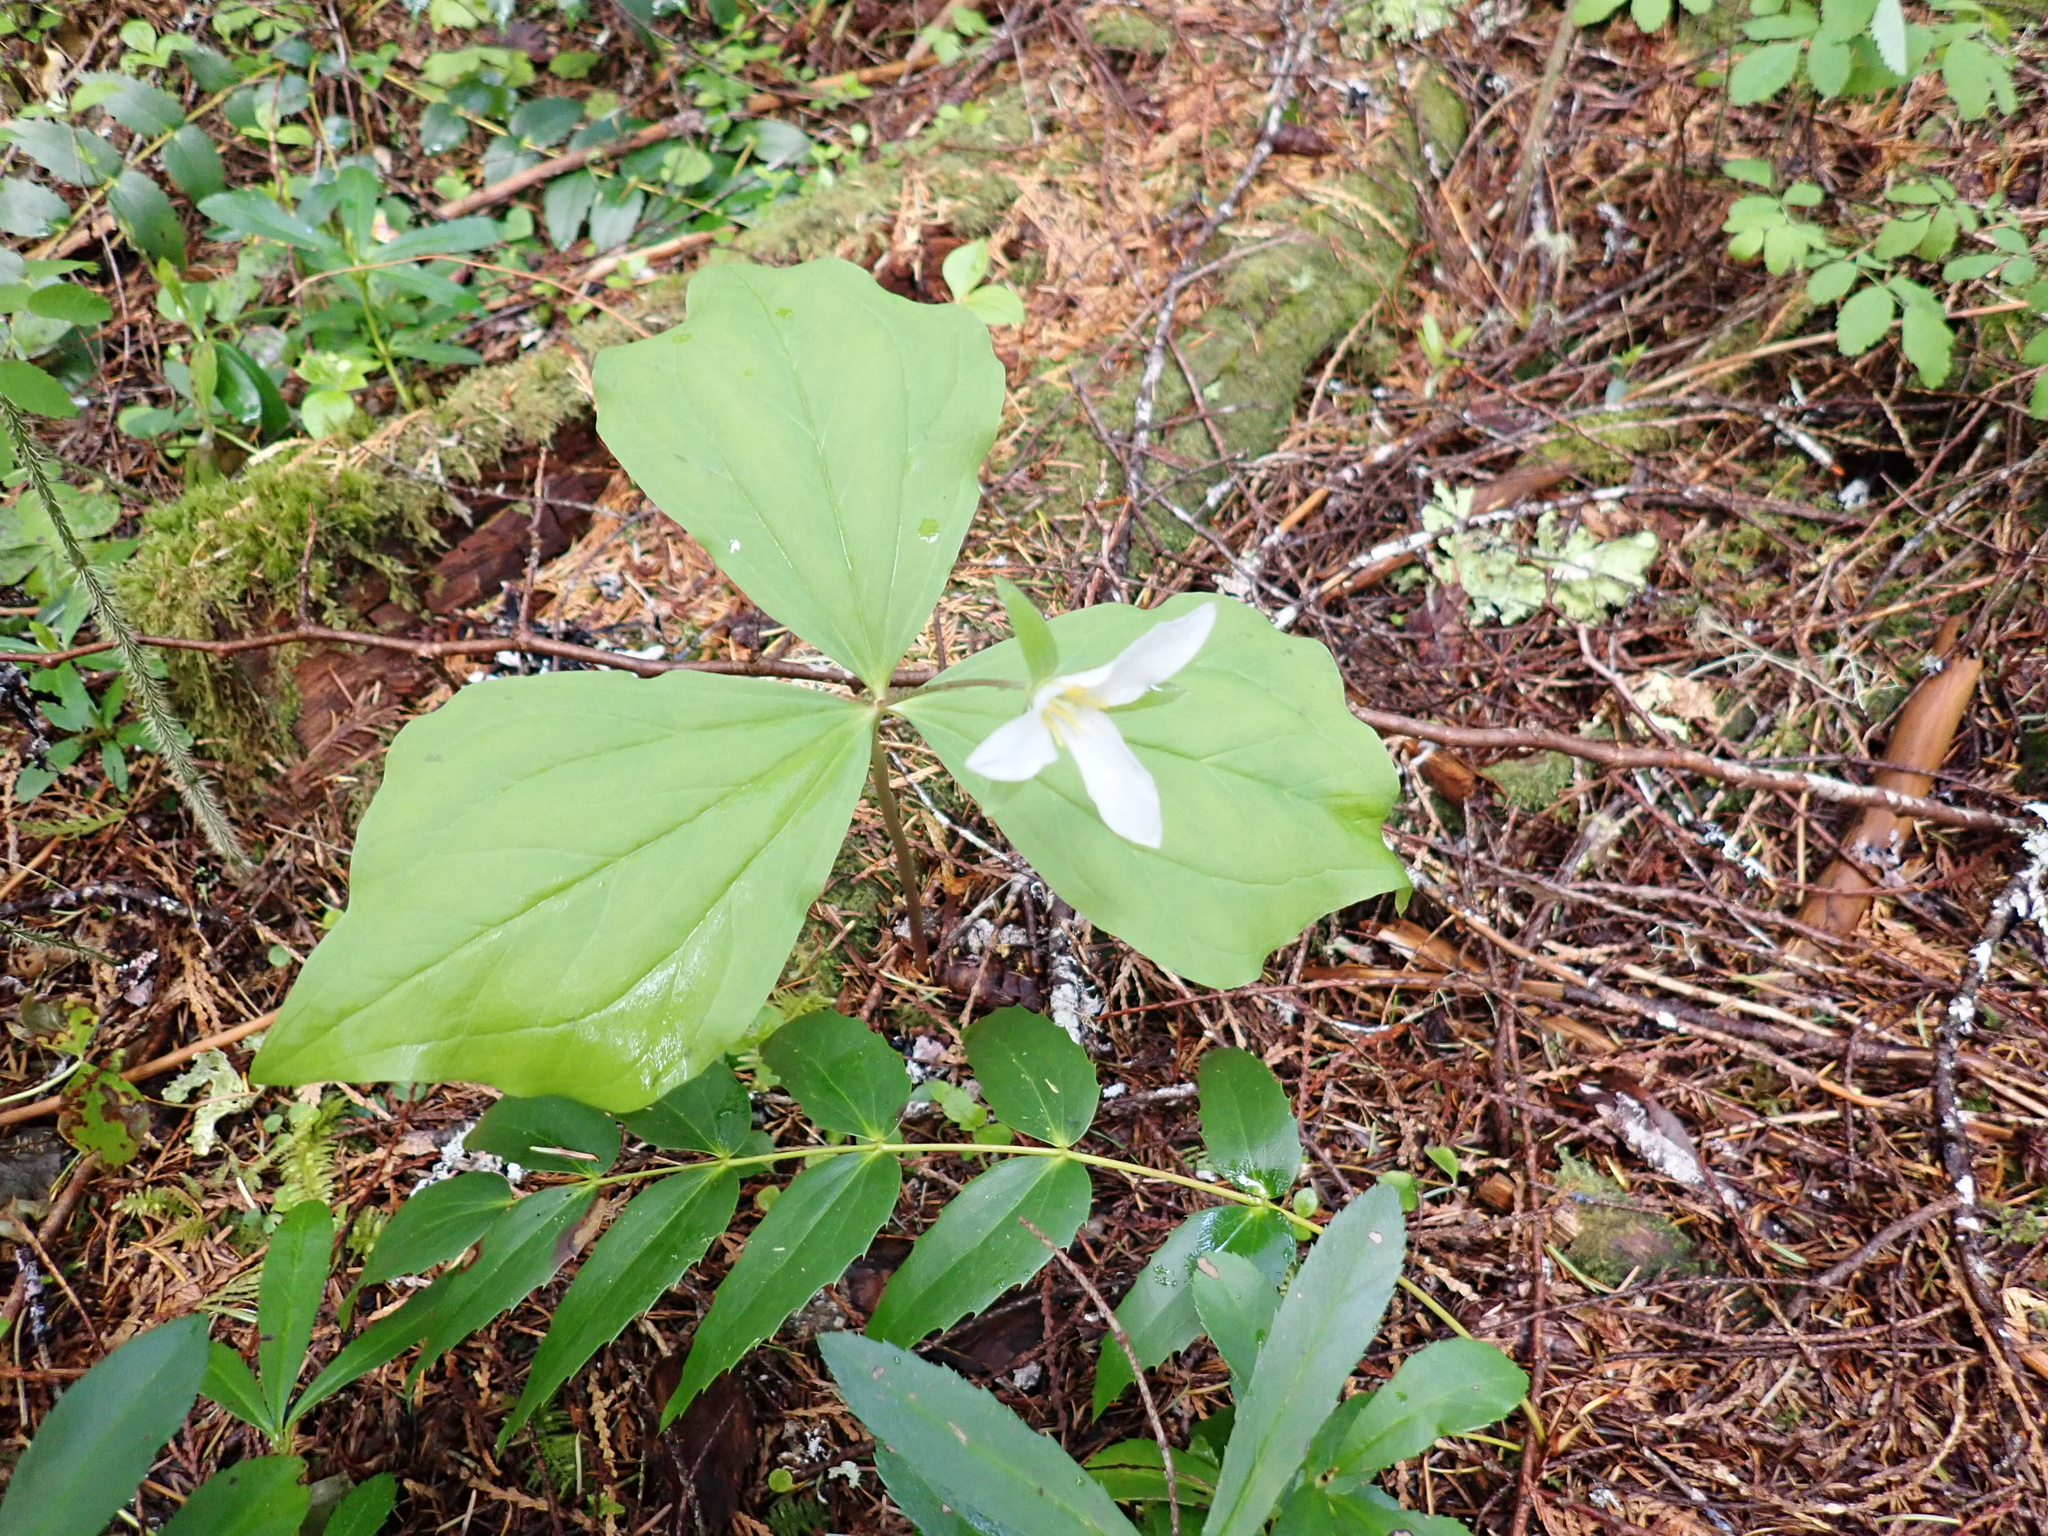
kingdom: Plantae
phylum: Tracheophyta
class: Liliopsida
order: Liliales
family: Melanthiaceae
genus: Trillium
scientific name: Trillium ovatum
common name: Pacific trillium
